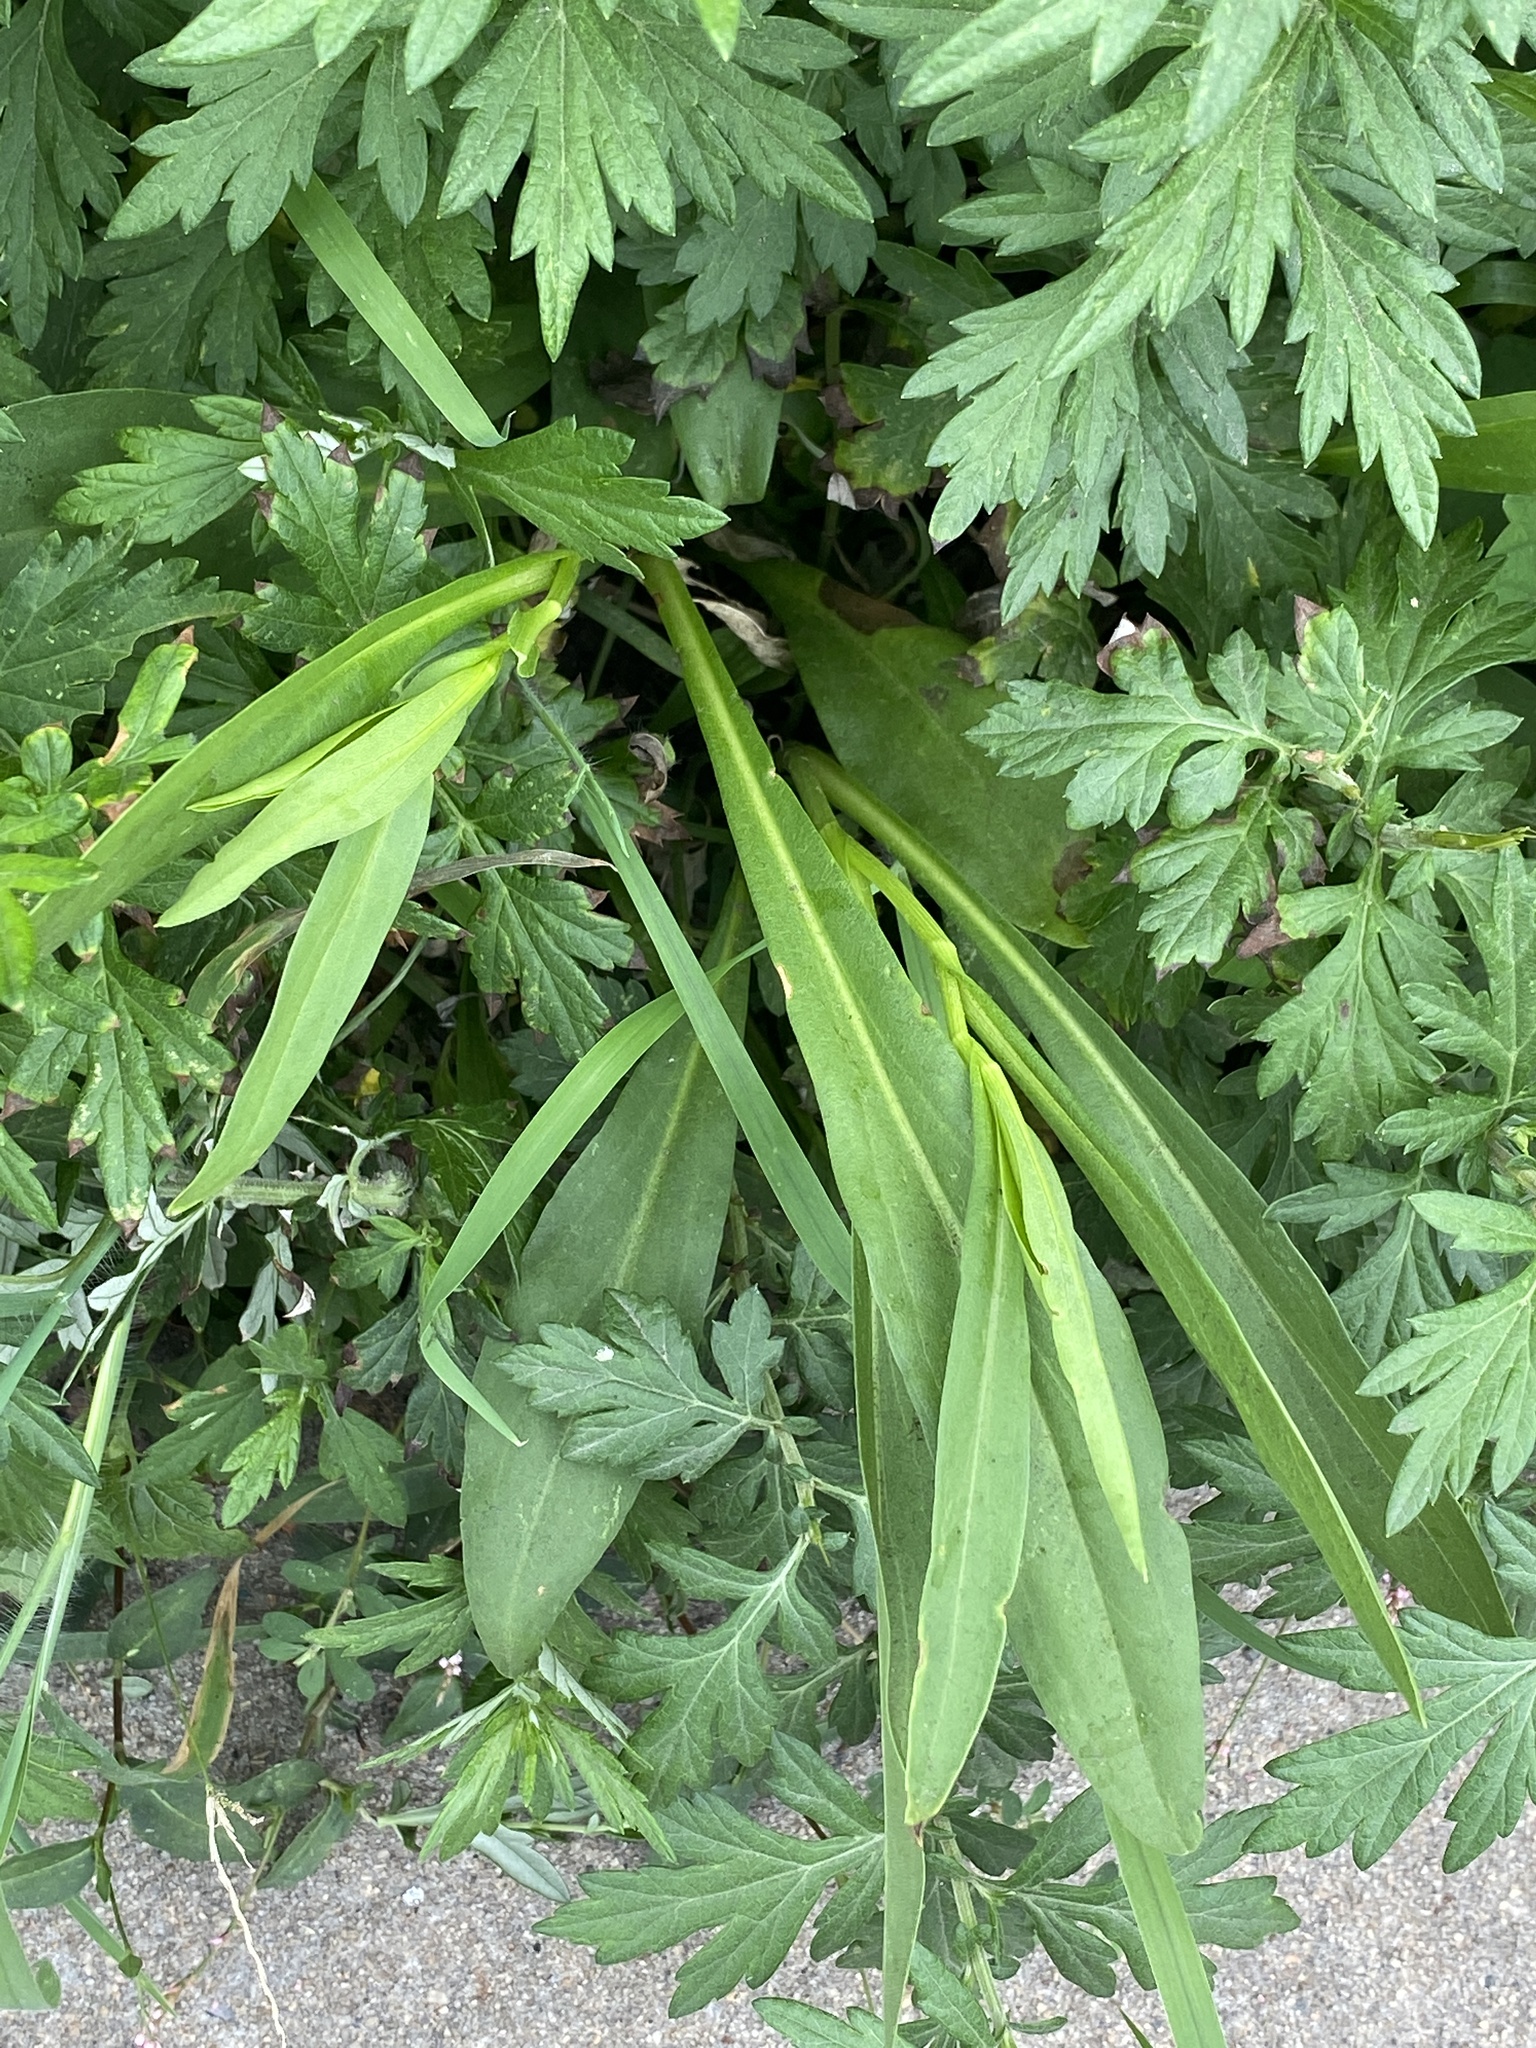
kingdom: Plantae
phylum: Tracheophyta
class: Magnoliopsida
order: Asterales
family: Asteraceae
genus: Solidago
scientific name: Solidago sempervirens
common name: Salt-marsh goldenrod
